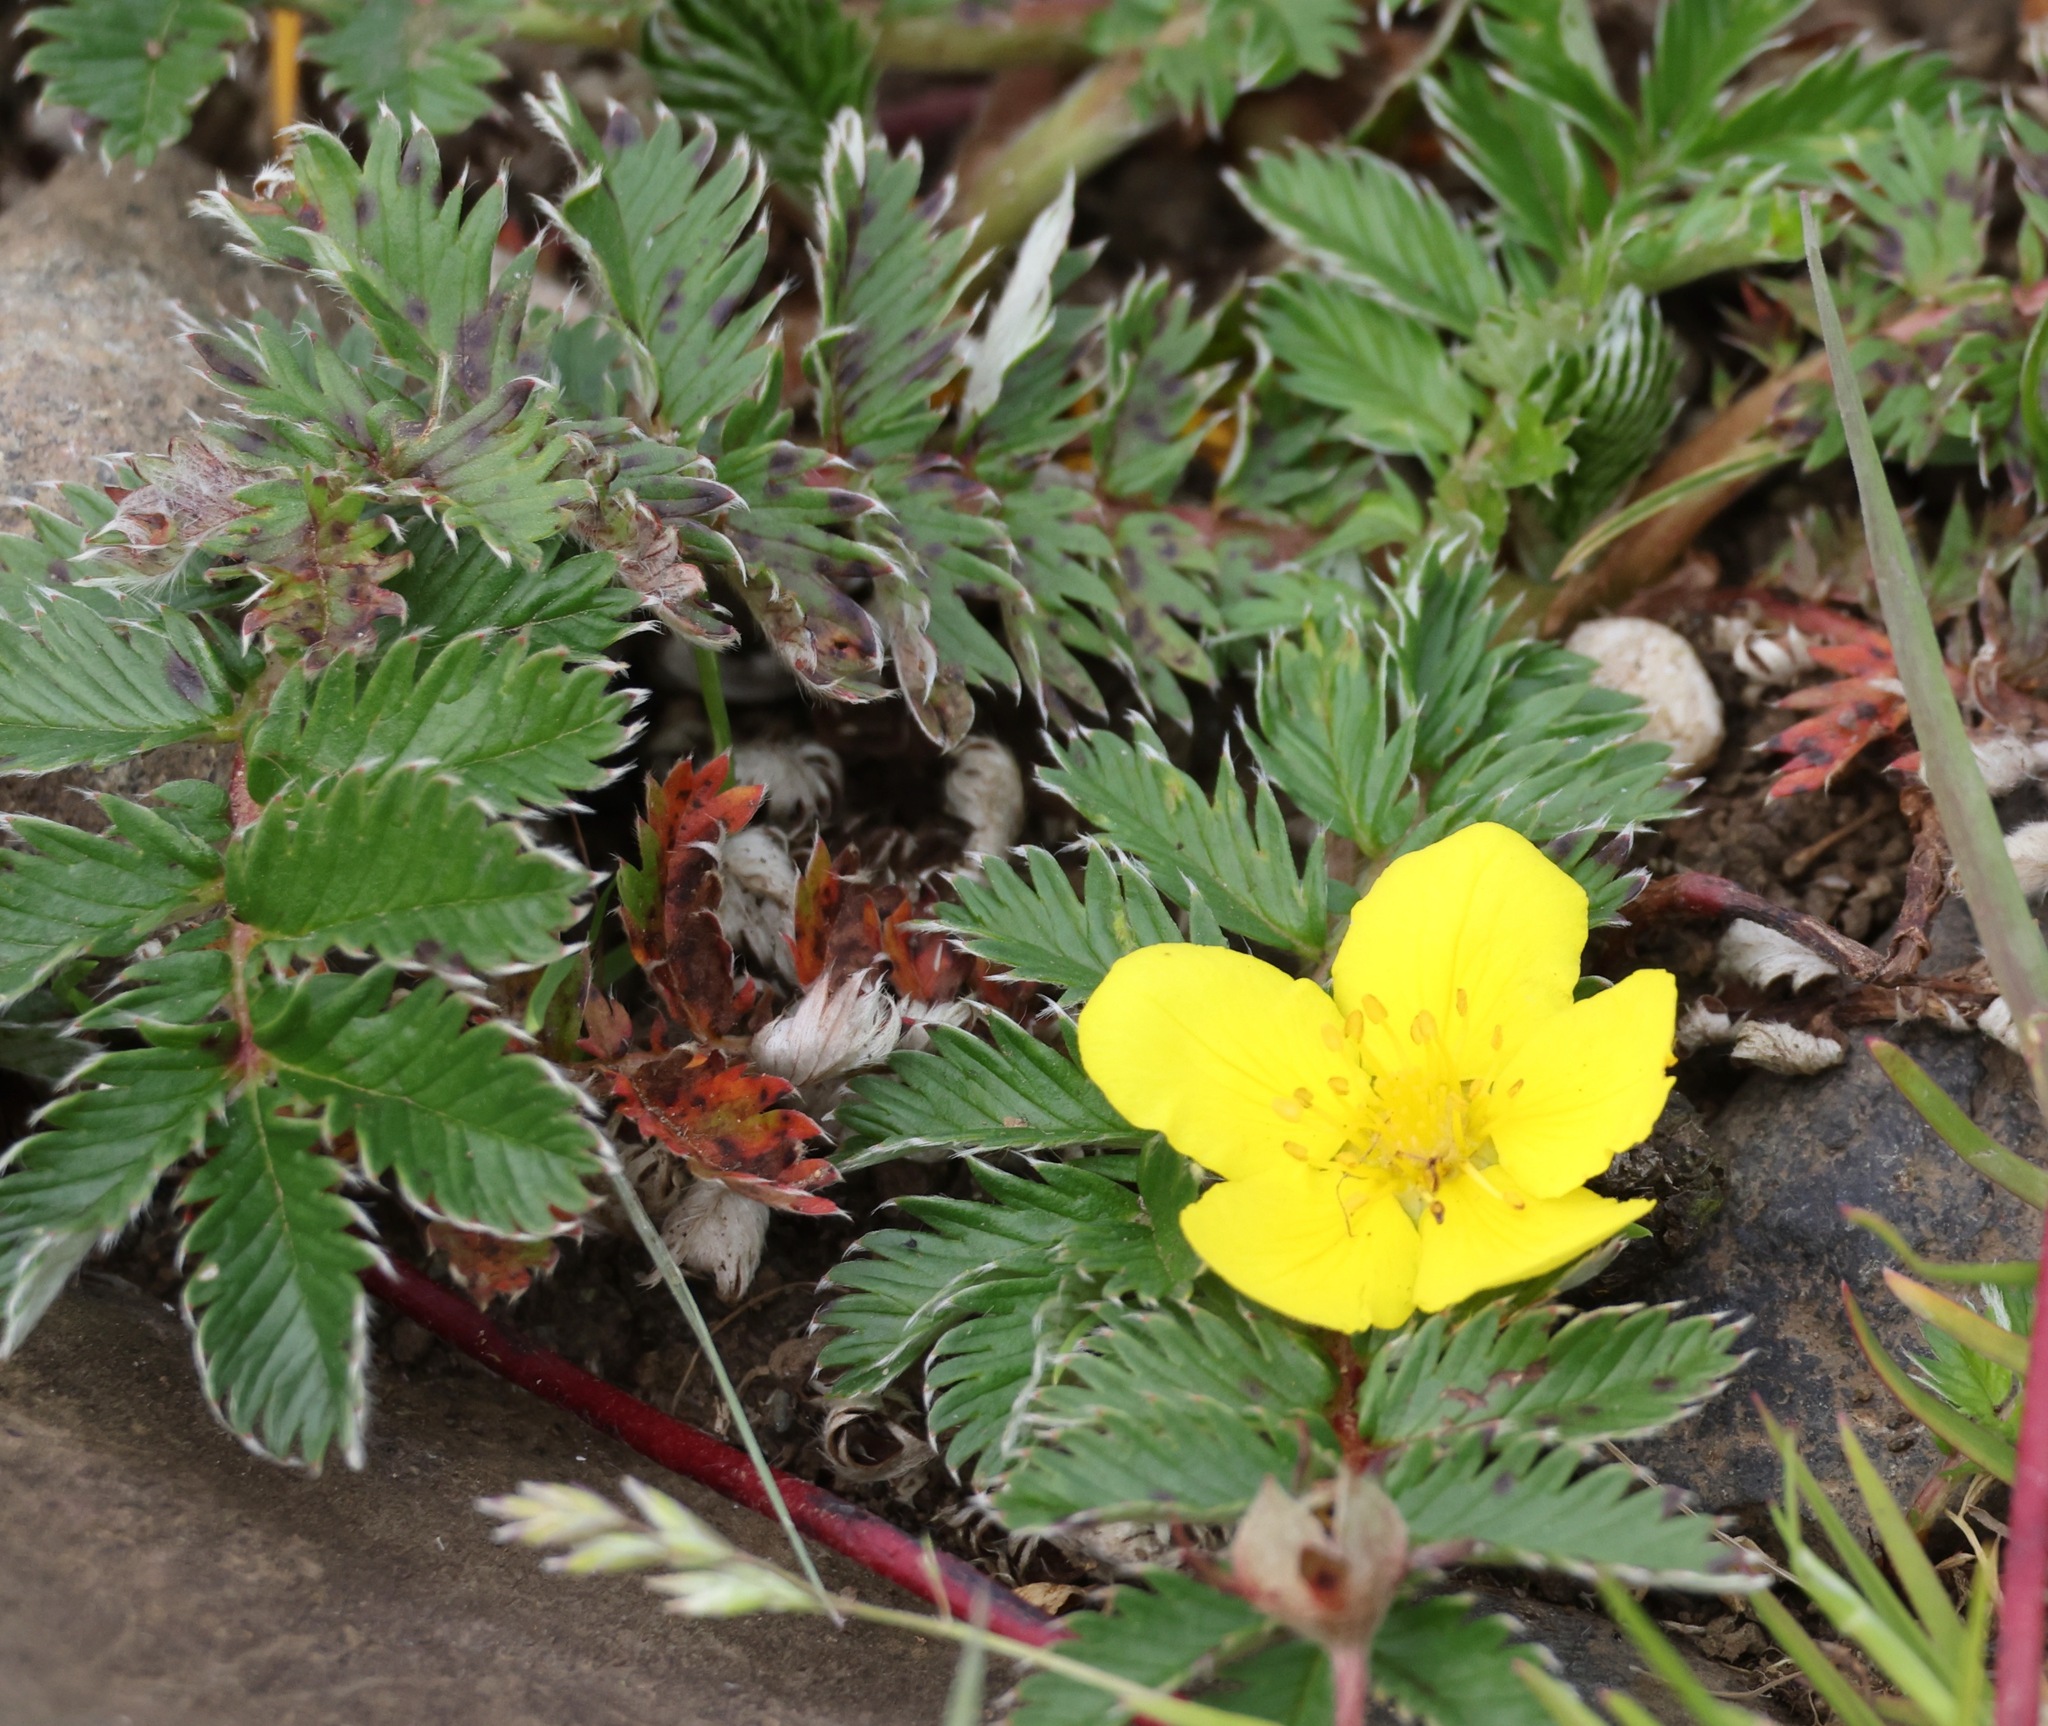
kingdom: Plantae
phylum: Tracheophyta
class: Magnoliopsida
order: Rosales
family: Rosaceae
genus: Argentina
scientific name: Argentina anserina
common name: Common silverweed
